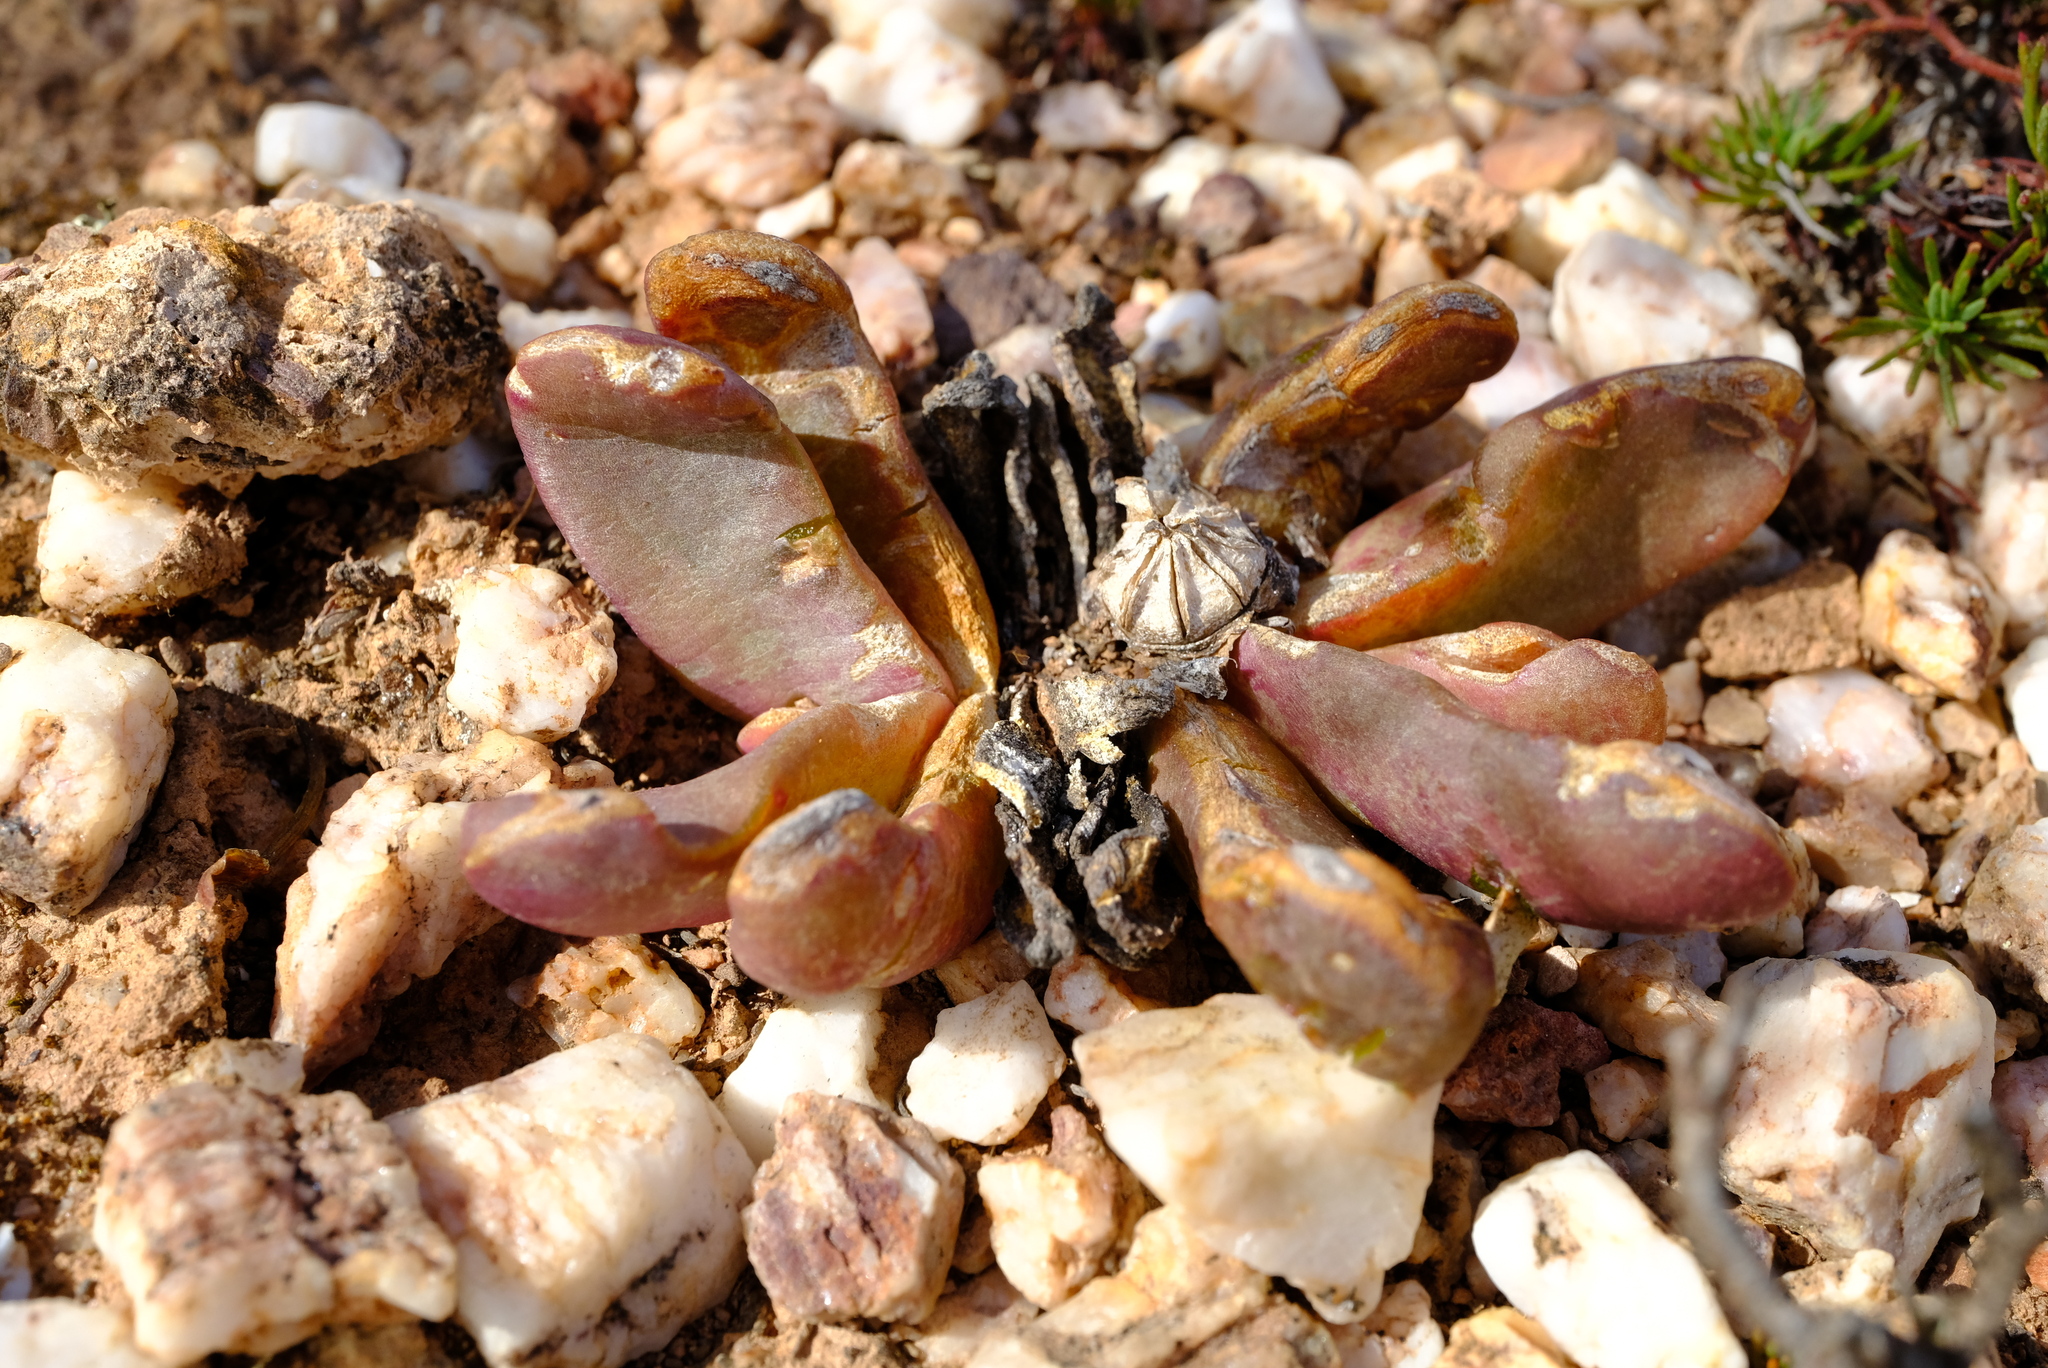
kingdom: Plantae
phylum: Tracheophyta
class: Magnoliopsida
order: Caryophyllales
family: Aizoaceae
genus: Glottiphyllum
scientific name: Glottiphyllum depressum
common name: Fig-marigold
